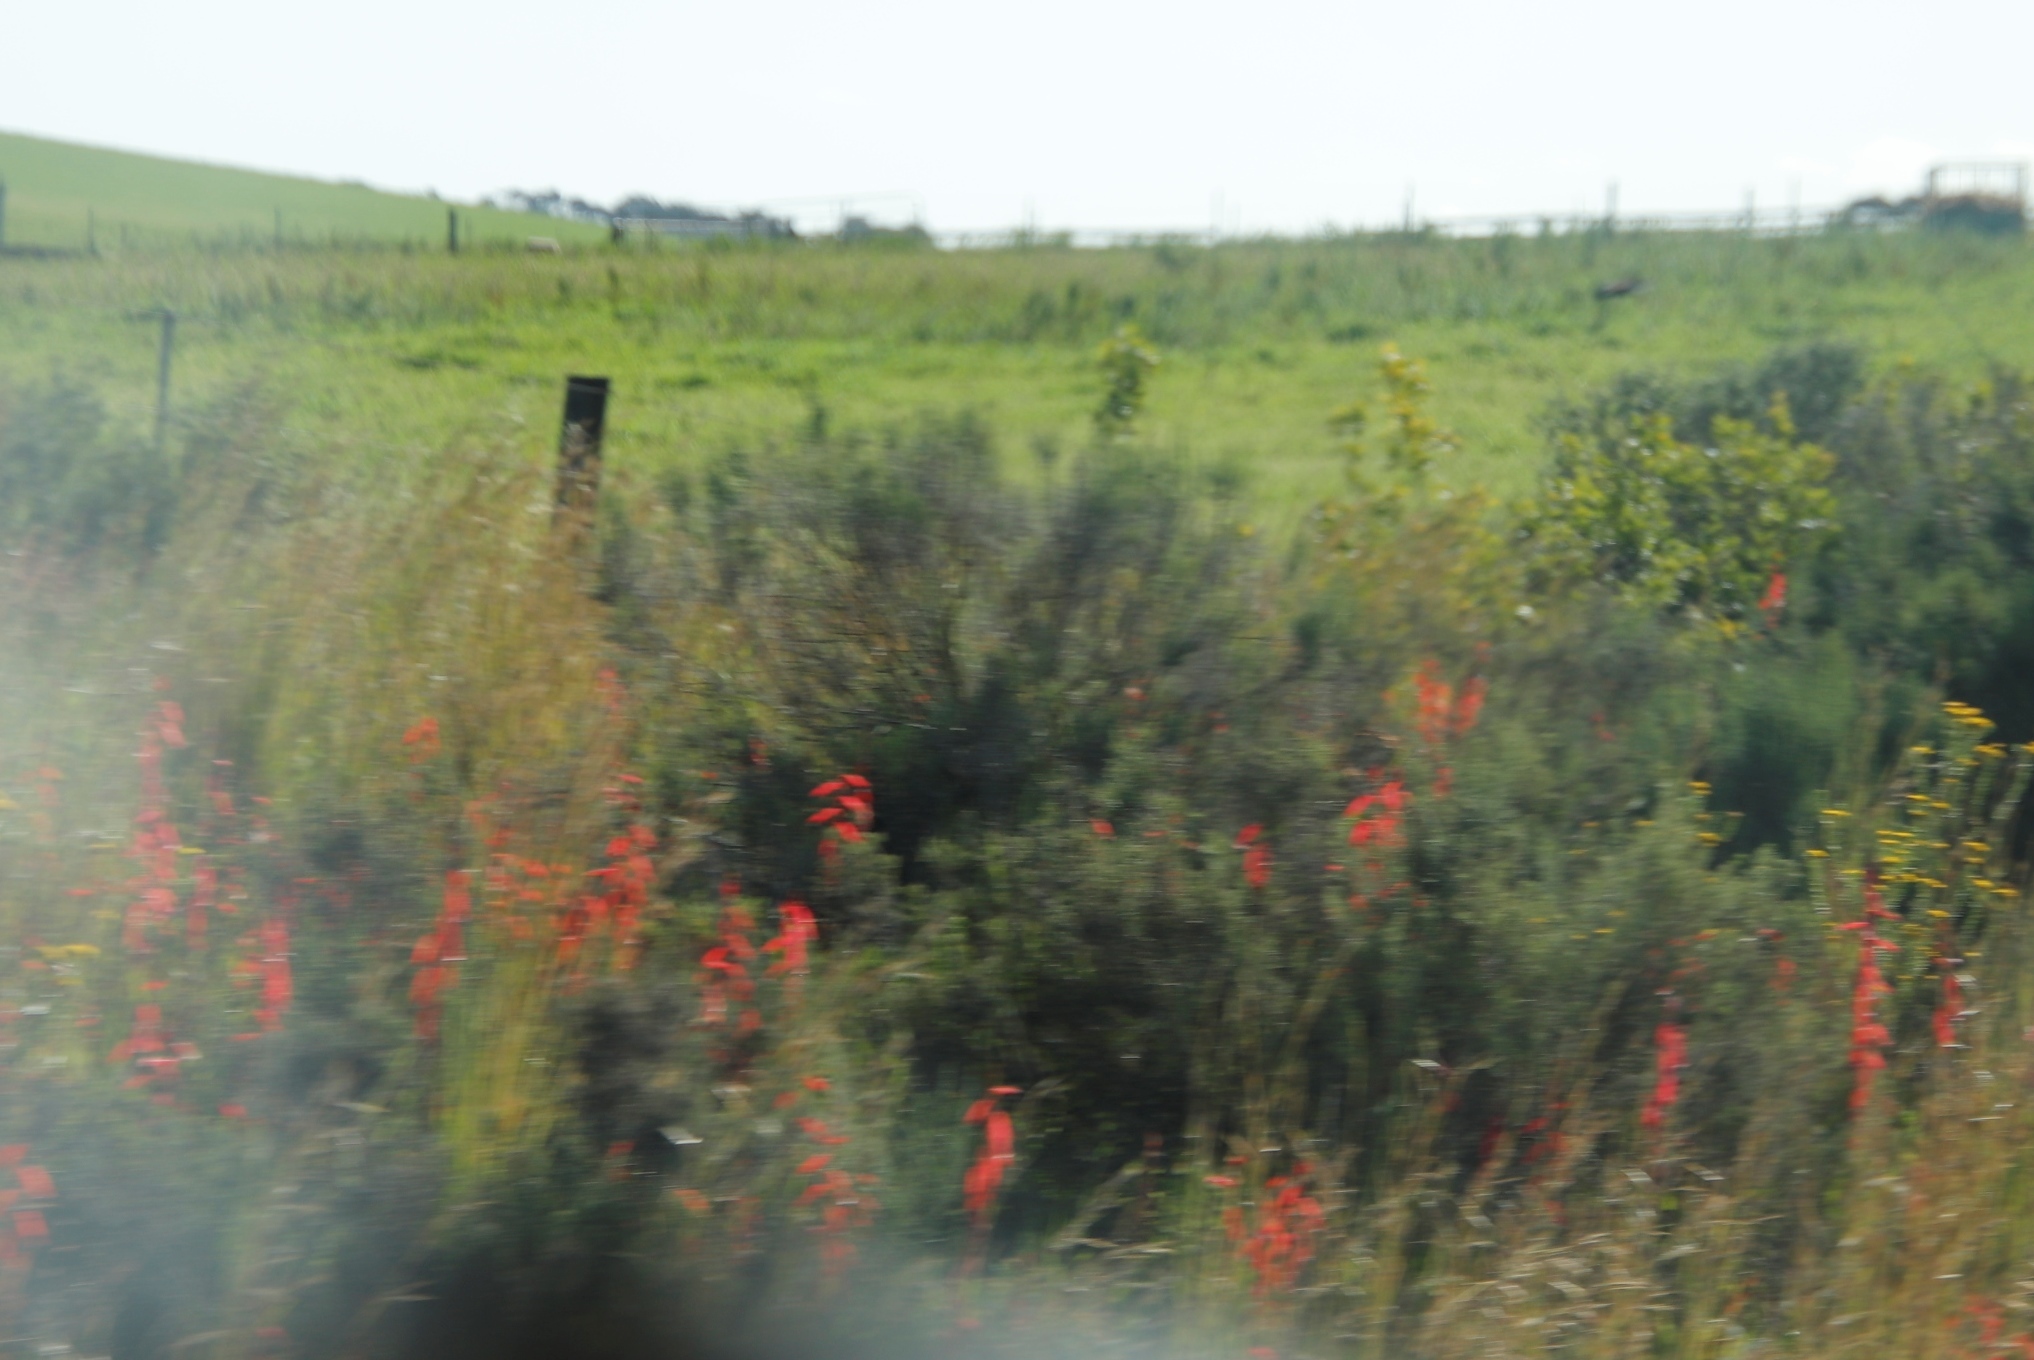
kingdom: Plantae
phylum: Tracheophyta
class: Liliopsida
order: Asparagales
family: Iridaceae
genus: Watsonia
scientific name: Watsonia aletroides
